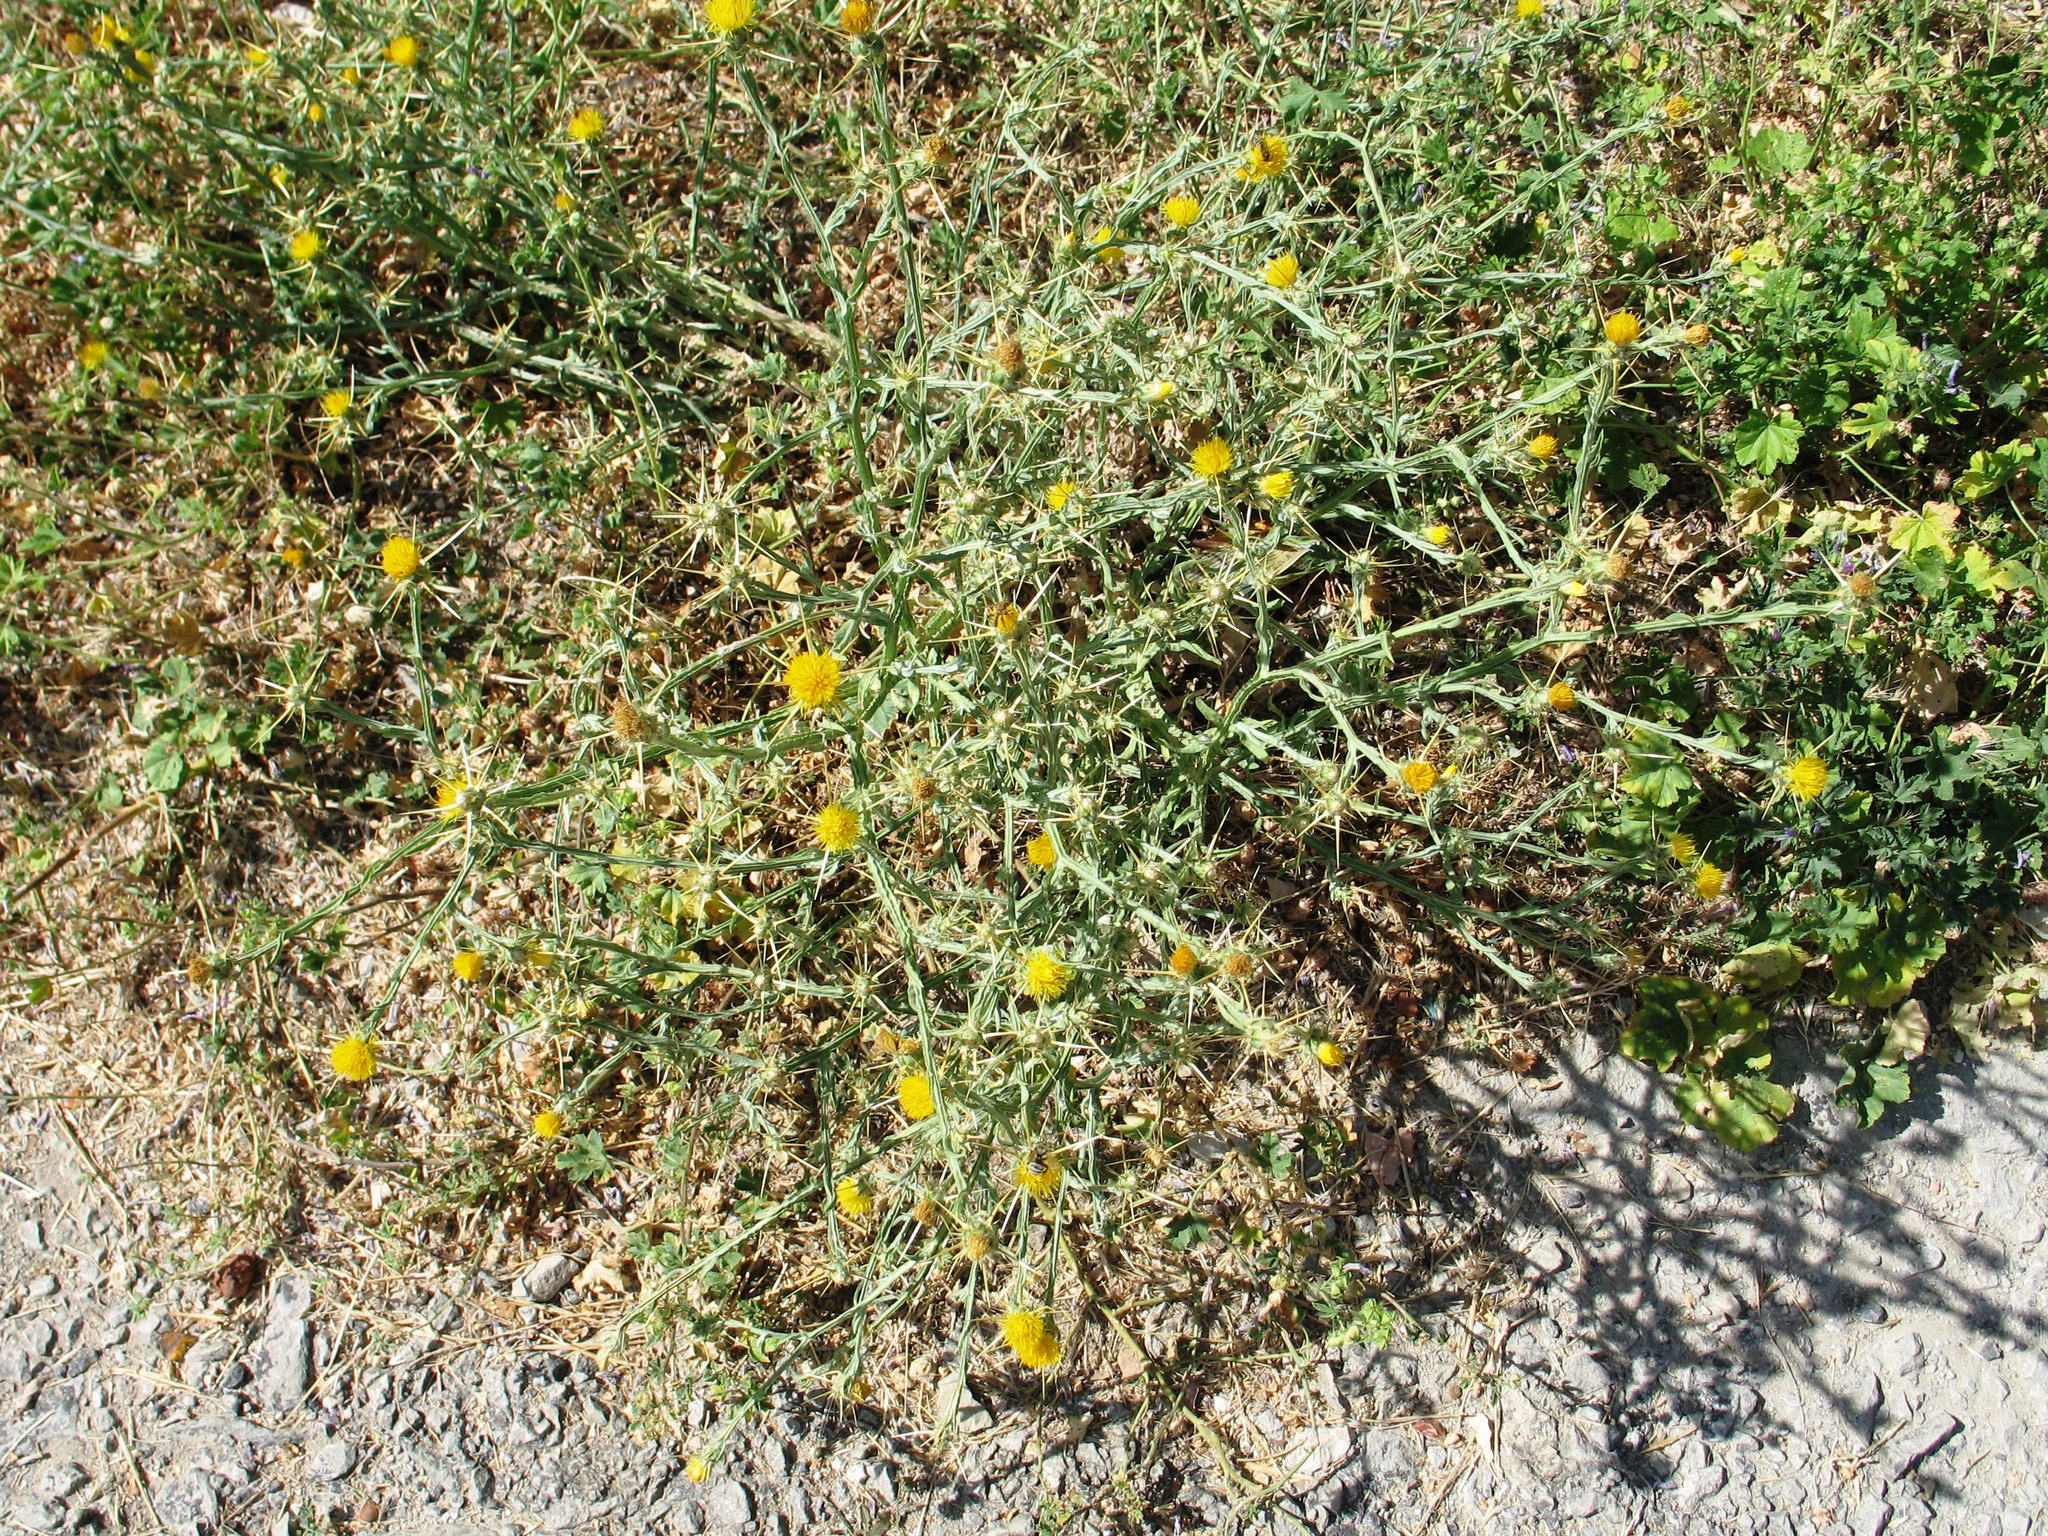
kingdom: Plantae
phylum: Tracheophyta
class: Magnoliopsida
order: Asterales
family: Asteraceae
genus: Centaurea
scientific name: Centaurea solstitialis
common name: Yellow star-thistle
